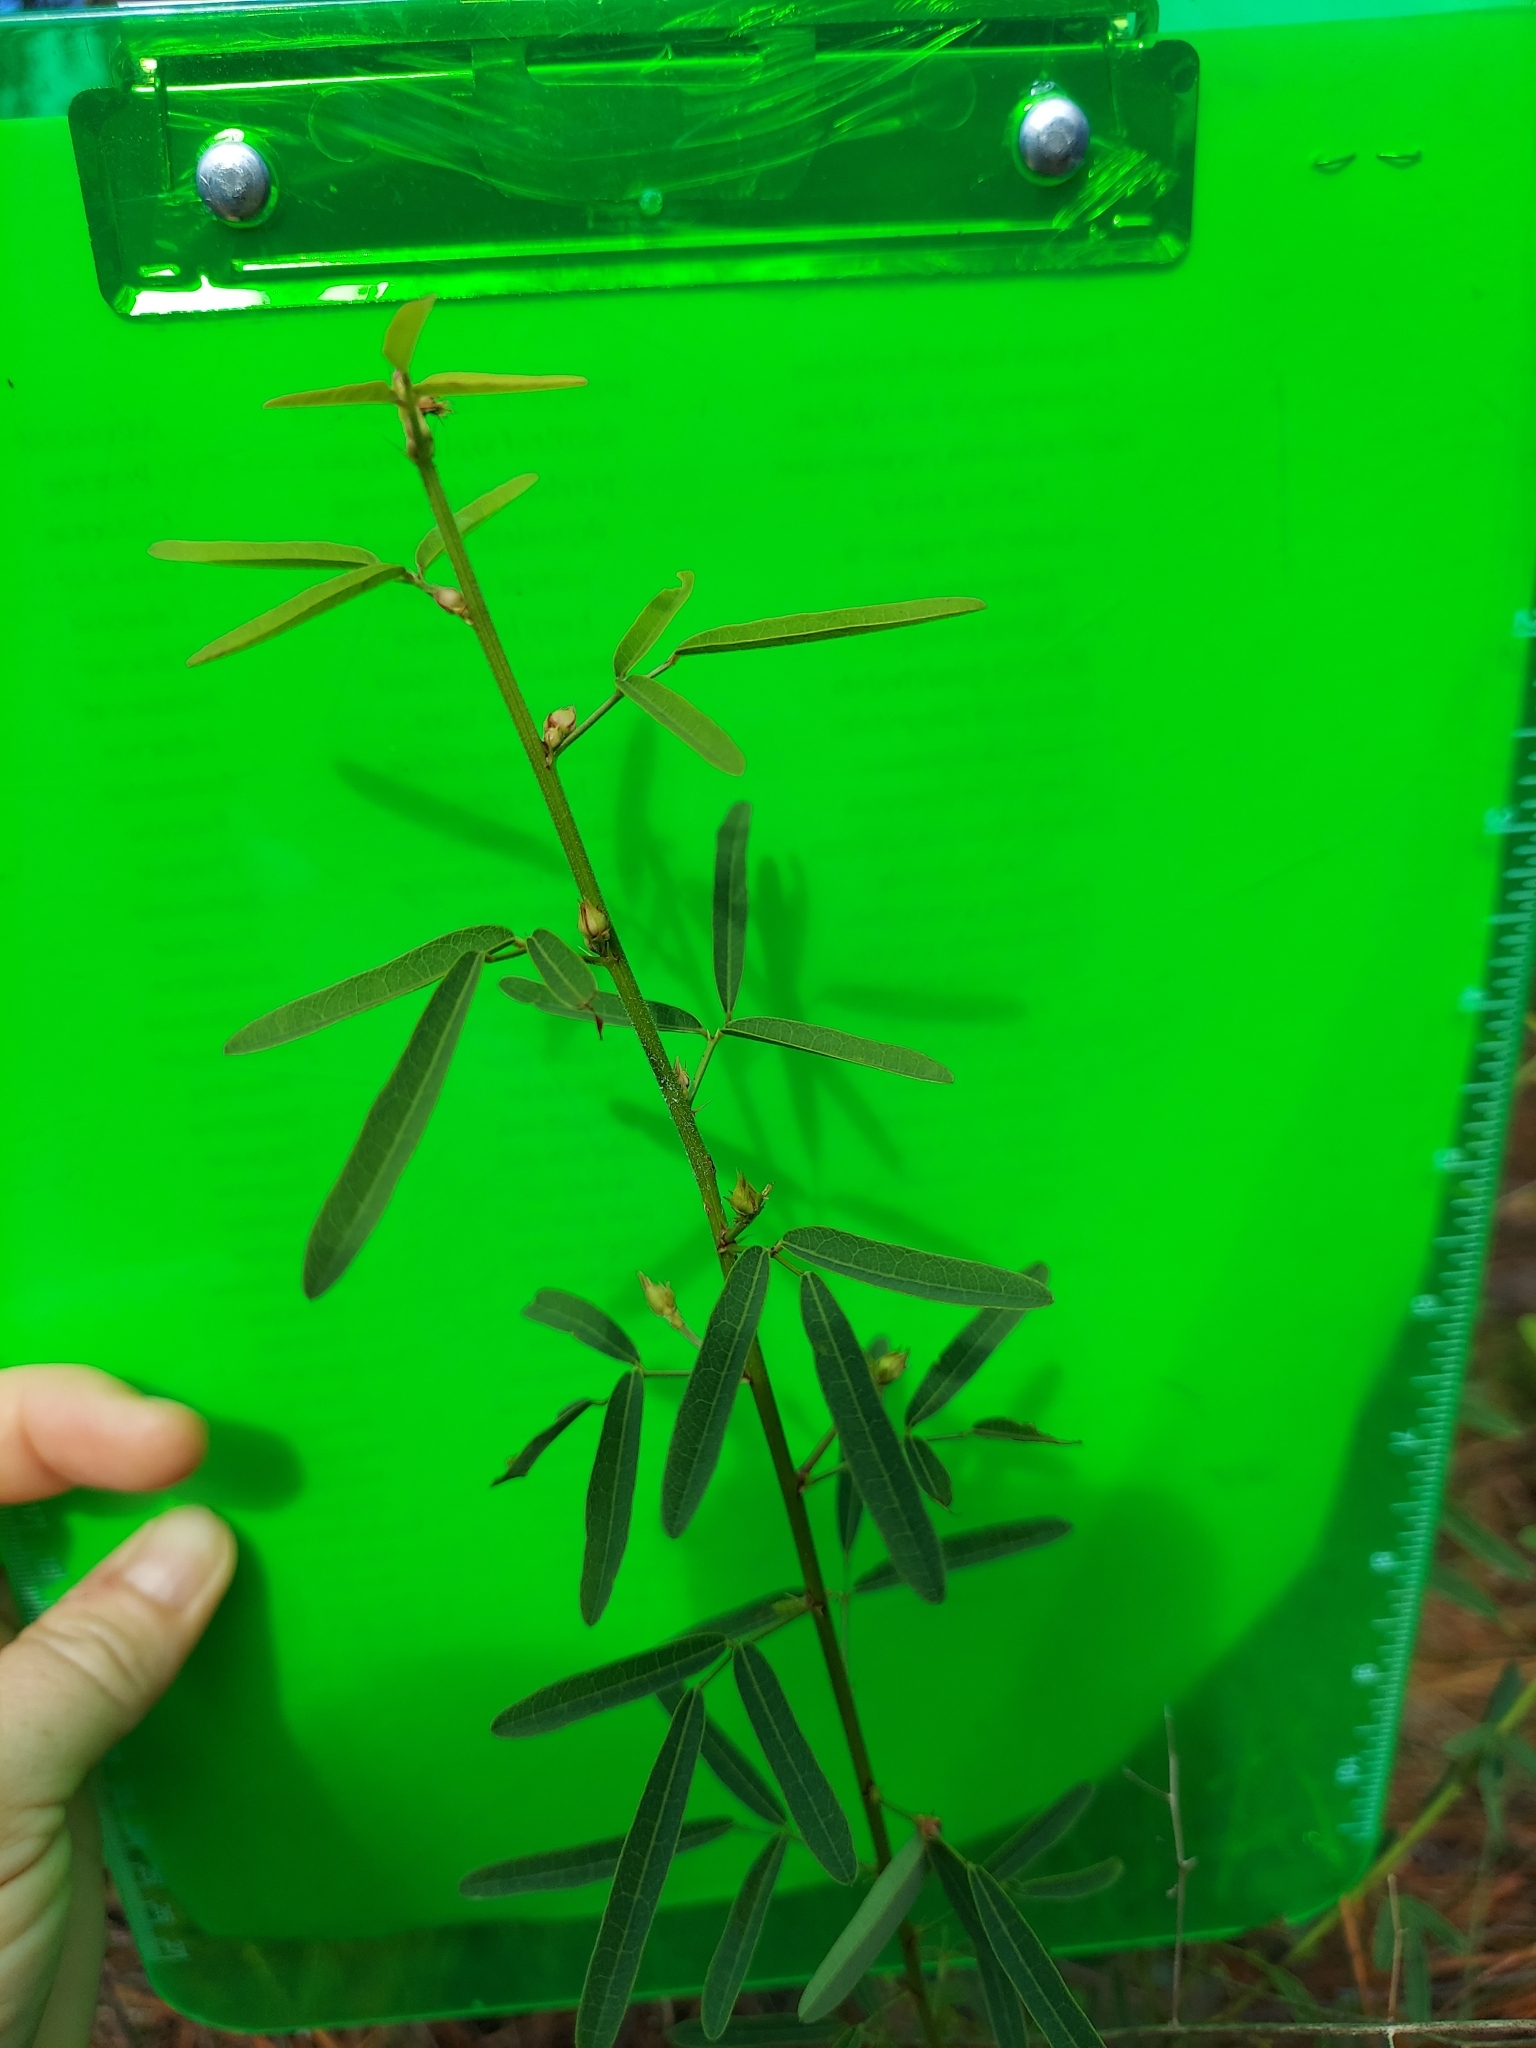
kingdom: Plantae
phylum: Tracheophyta
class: Magnoliopsida
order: Fabales
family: Fabaceae
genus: Desmodium
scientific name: Desmodium
